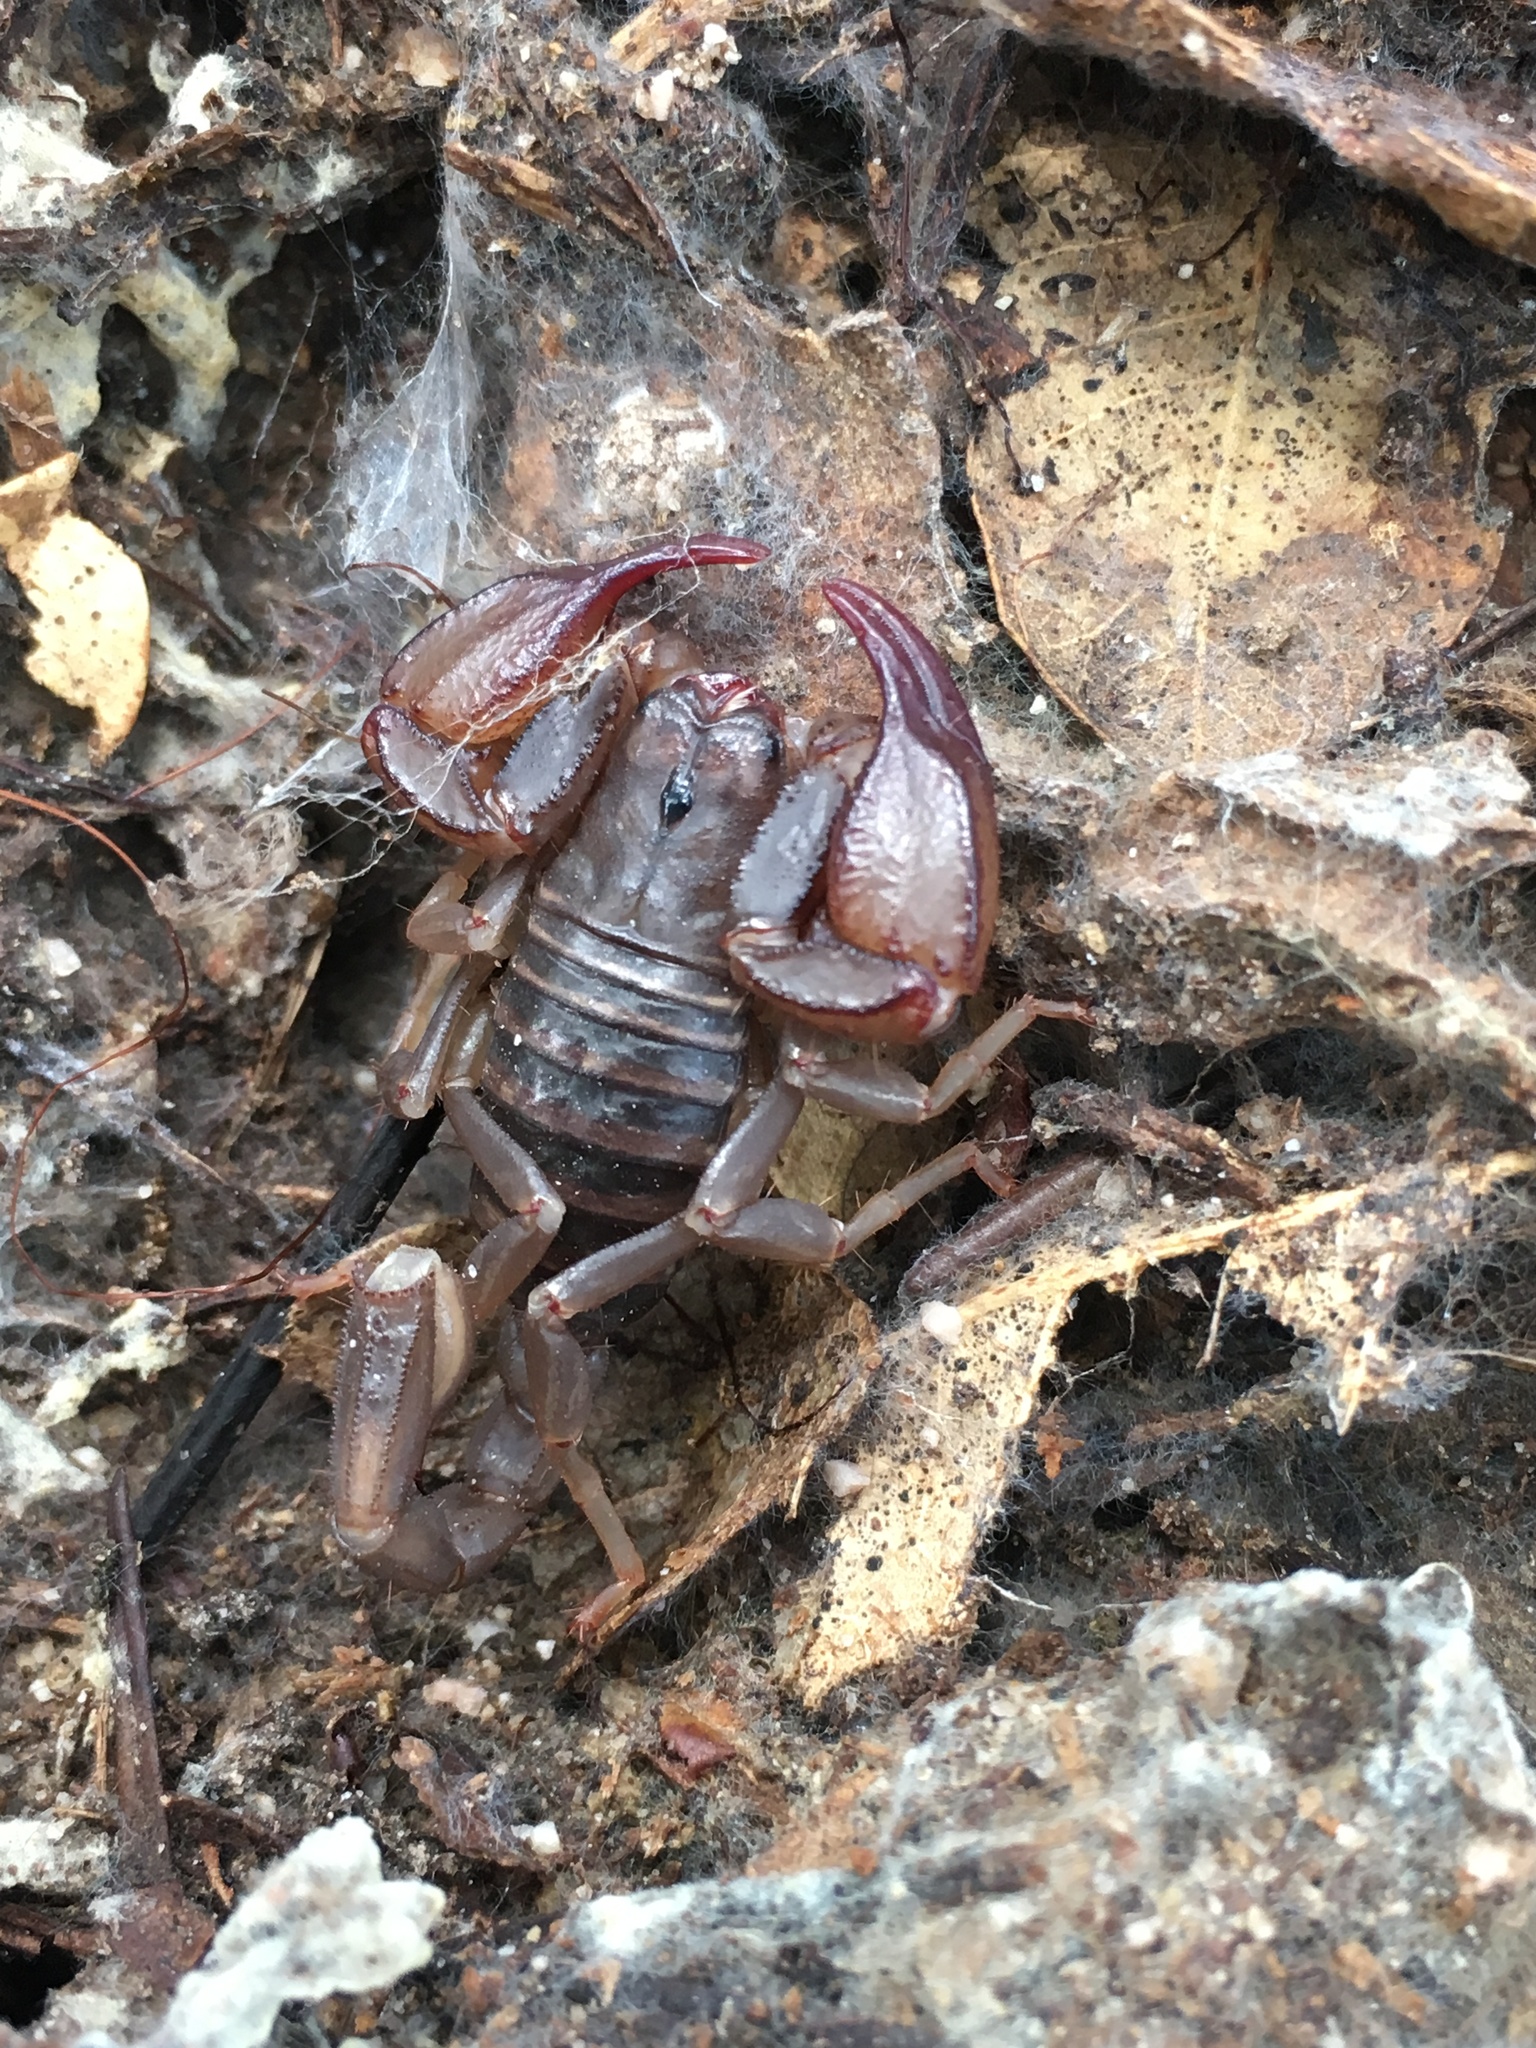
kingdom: Animalia
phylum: Arthropoda
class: Arachnida
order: Scorpiones
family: Chactidae
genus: Uroctonus
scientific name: Uroctonus mordax
